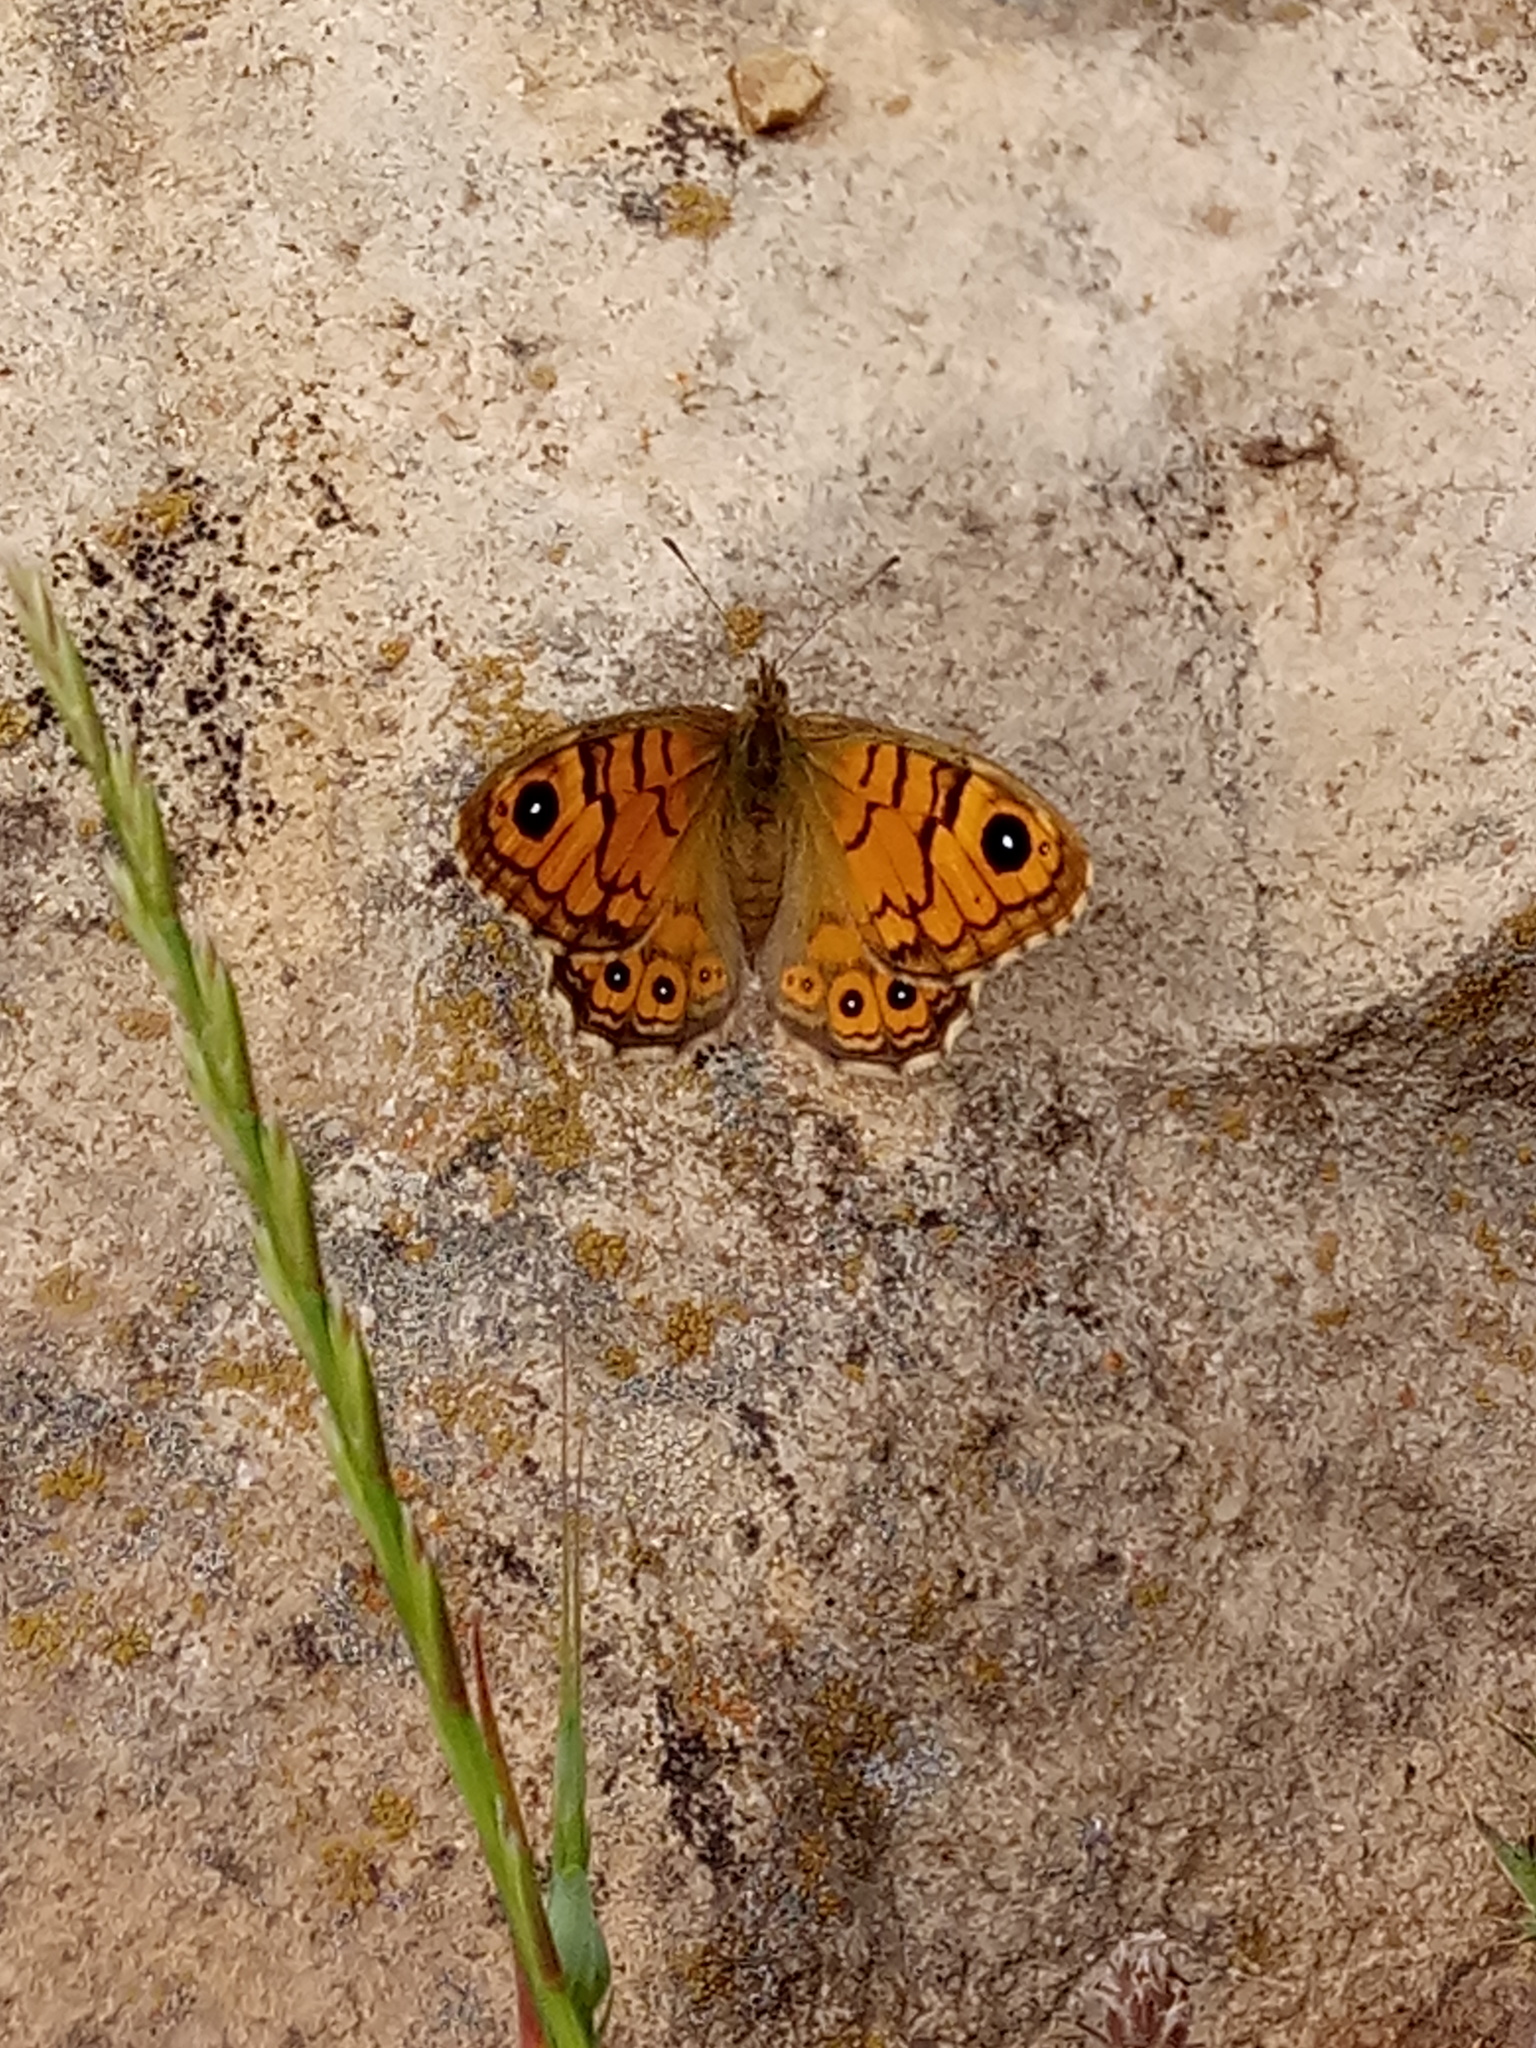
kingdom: Animalia
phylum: Arthropoda
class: Insecta
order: Lepidoptera
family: Nymphalidae
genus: Pararge
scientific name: Pararge Lasiommata megera
